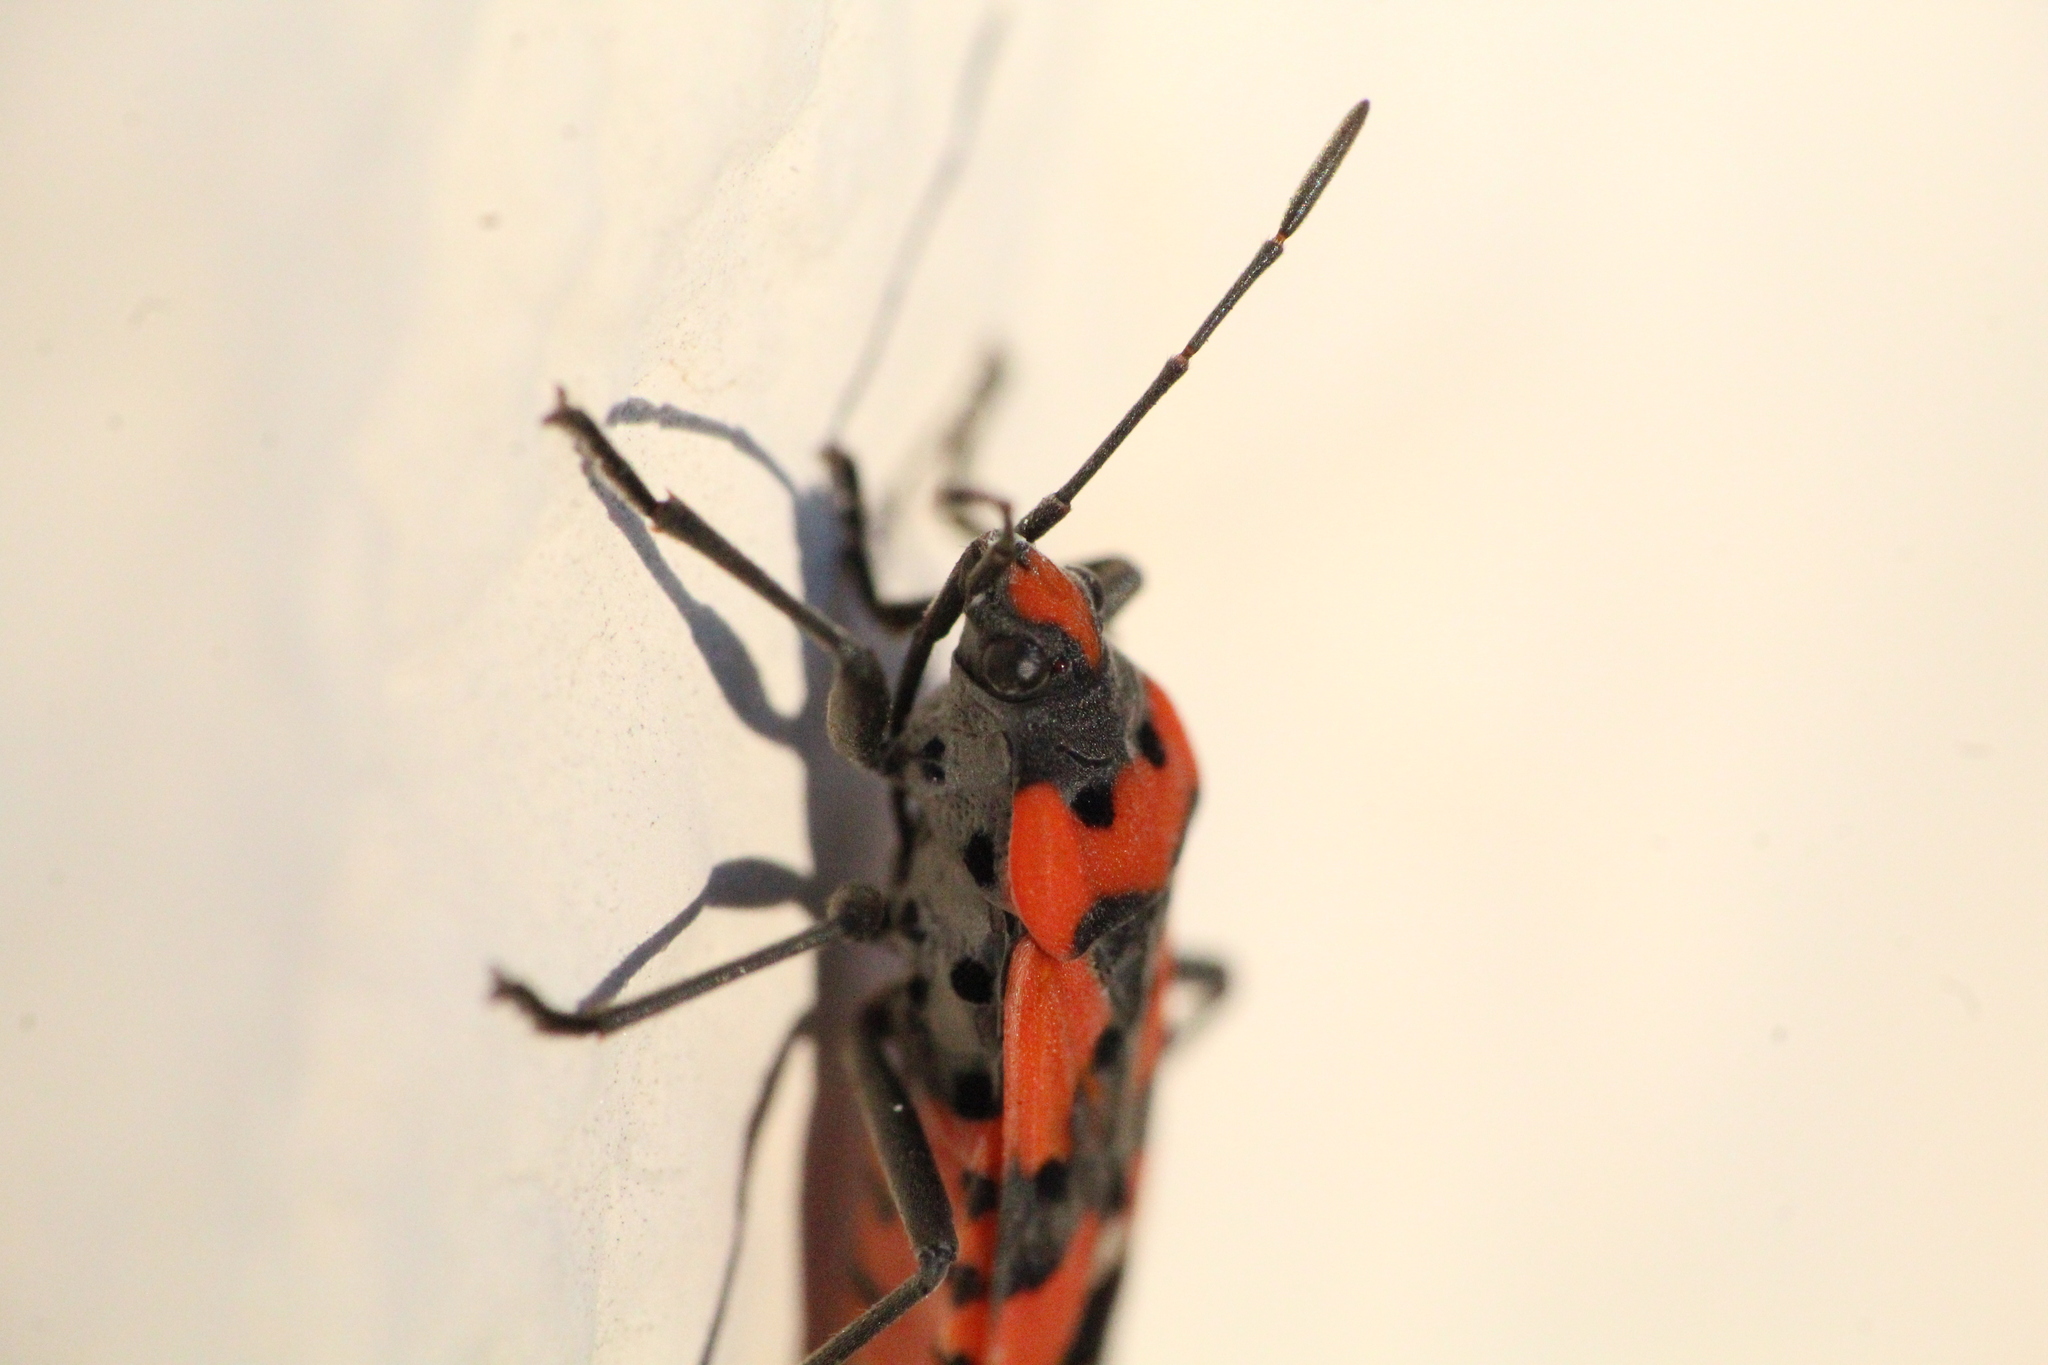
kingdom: Animalia
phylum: Arthropoda
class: Insecta
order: Hemiptera
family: Lygaeidae
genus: Lygaeus
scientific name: Lygaeus equestris
